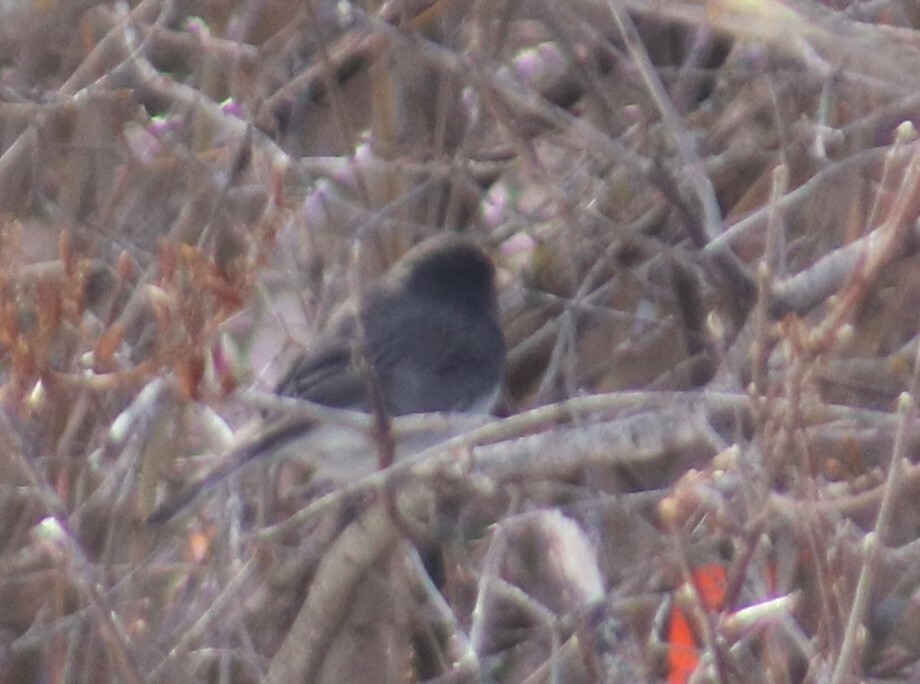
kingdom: Animalia
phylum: Chordata
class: Aves
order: Passeriformes
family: Passerellidae
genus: Junco
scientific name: Junco hyemalis
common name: Dark-eyed junco
